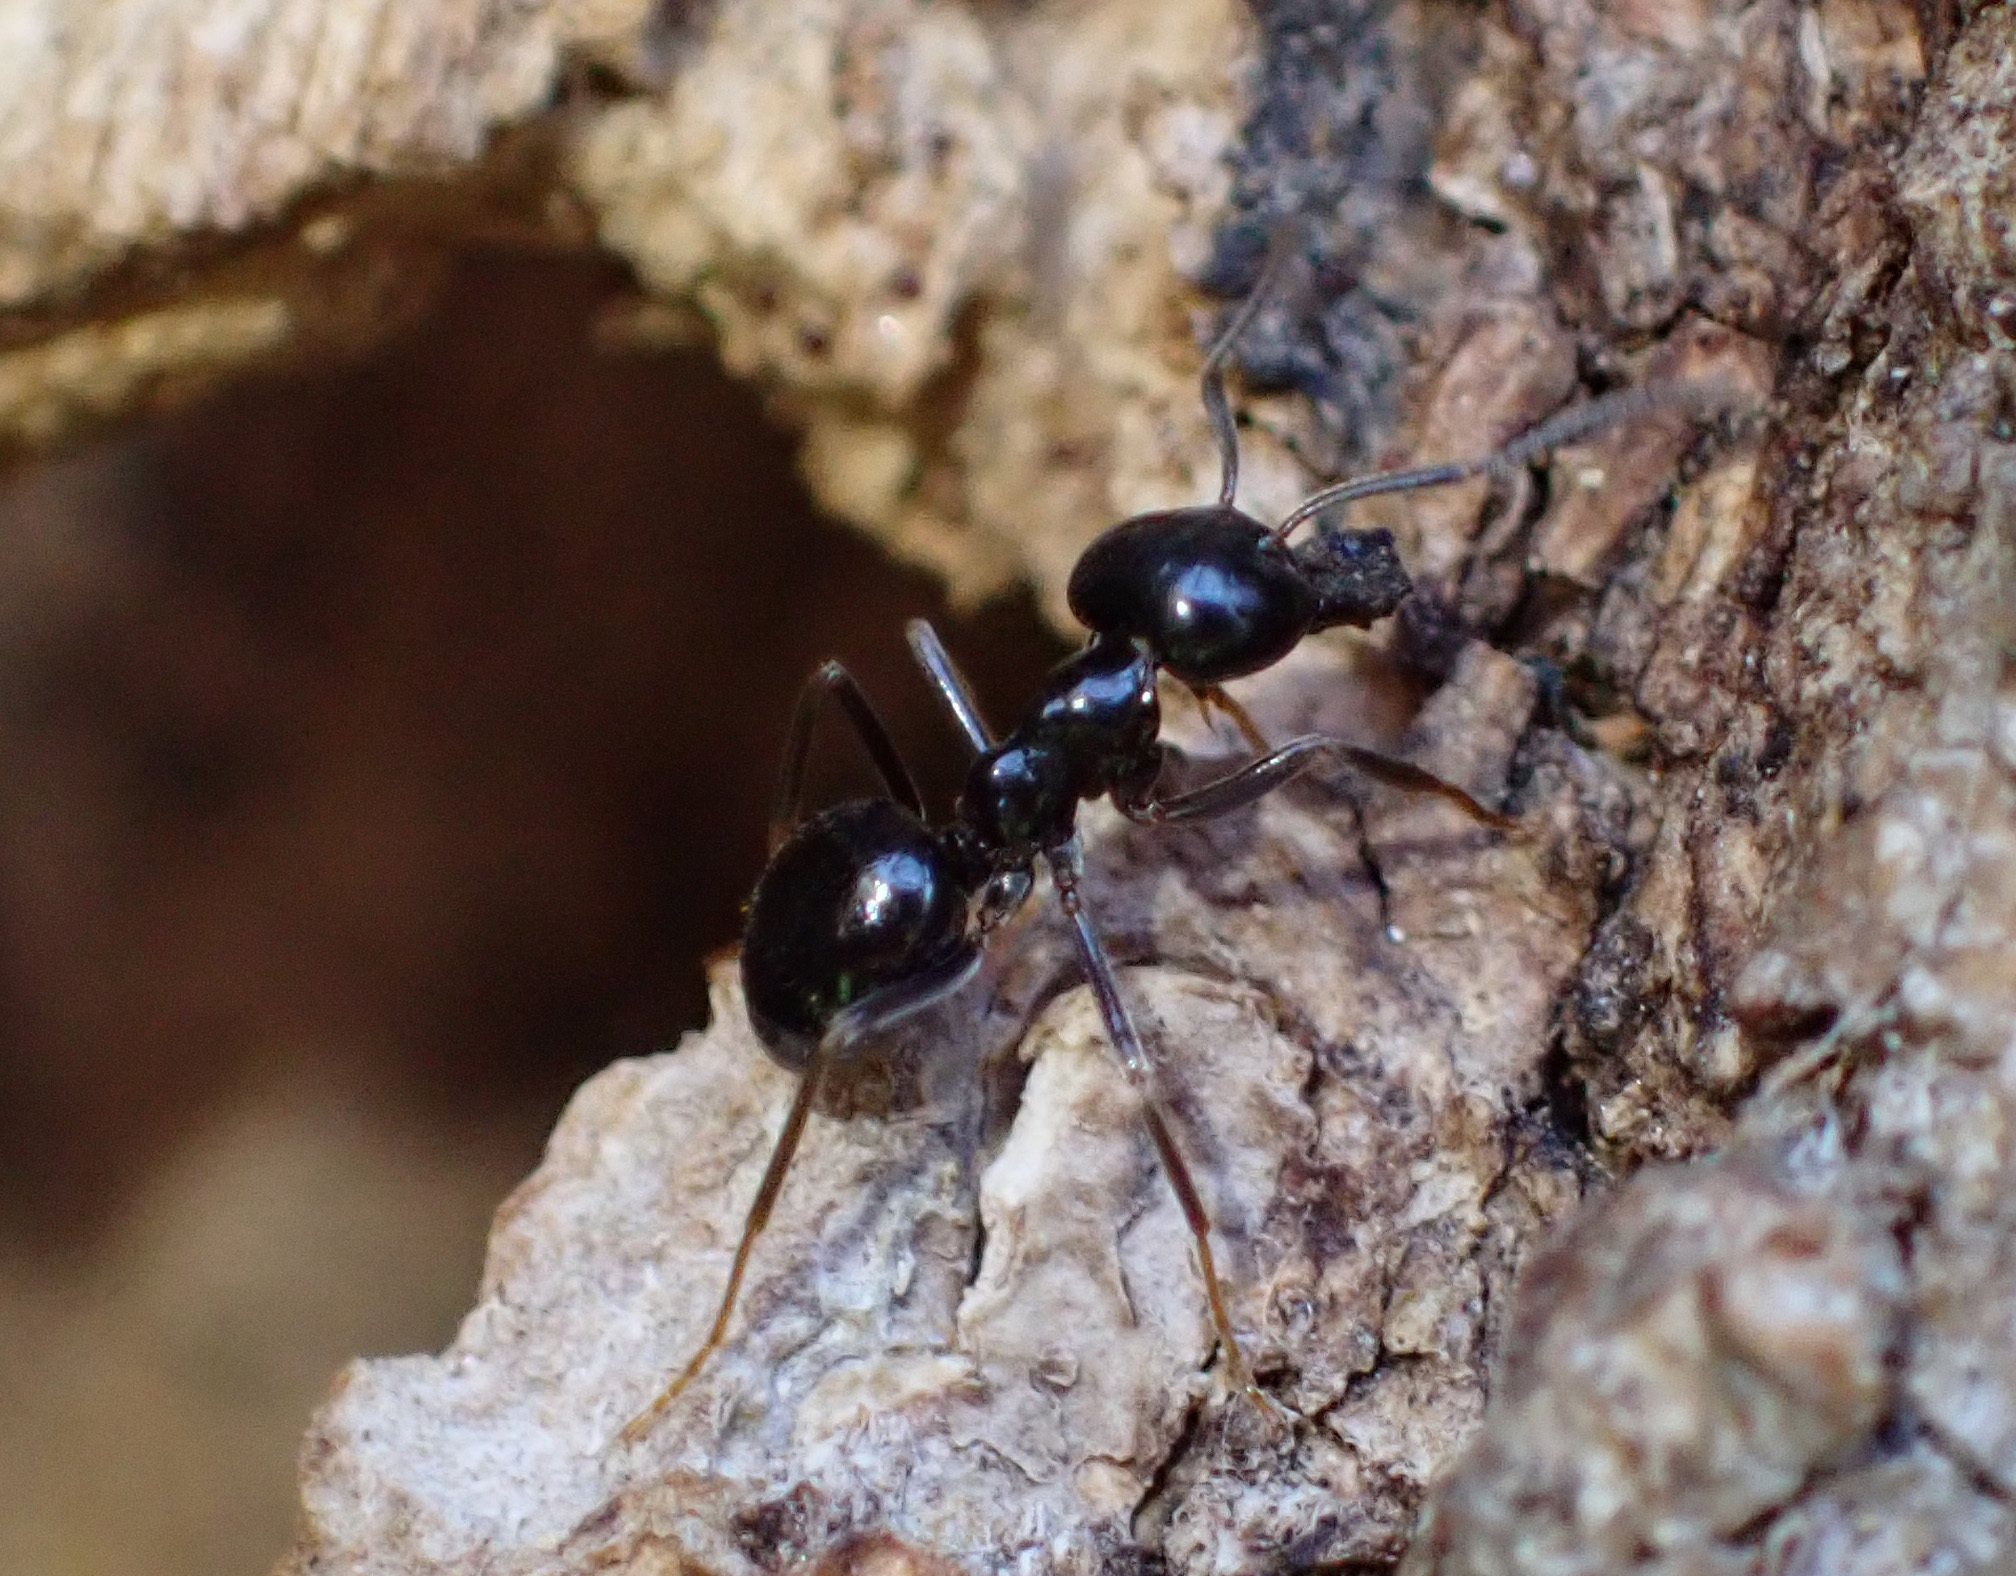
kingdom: Animalia
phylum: Arthropoda
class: Insecta
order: Hymenoptera
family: Formicidae
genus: Lasius
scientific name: Lasius fuliginosus
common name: Jet ant
